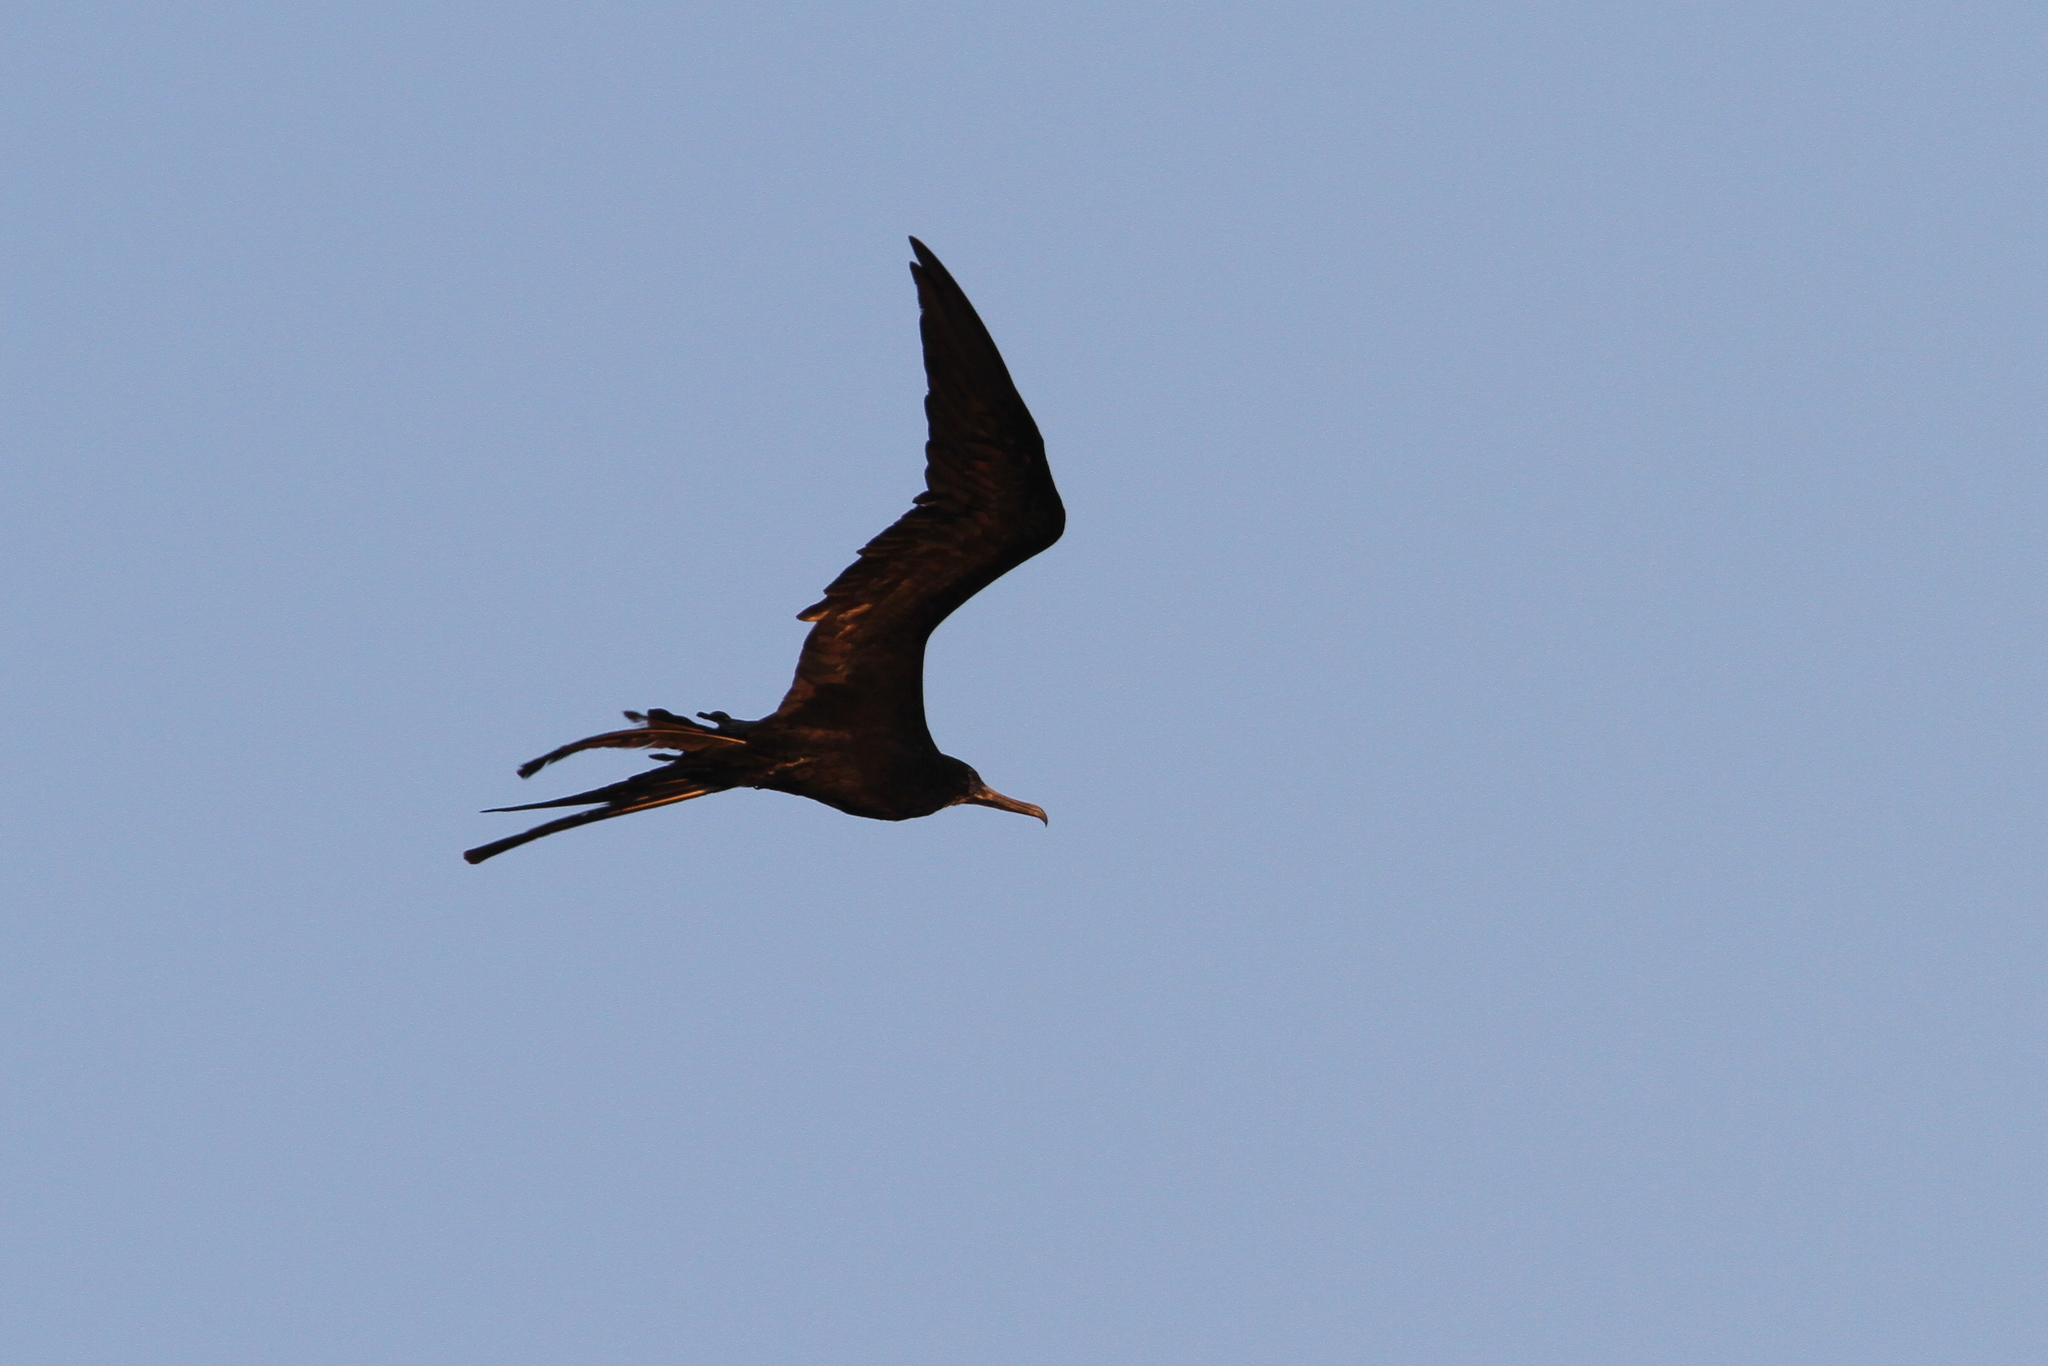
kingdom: Animalia
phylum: Chordata
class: Aves
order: Suliformes
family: Fregatidae
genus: Fregata
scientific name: Fregata magnificens
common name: Magnificent frigatebird
